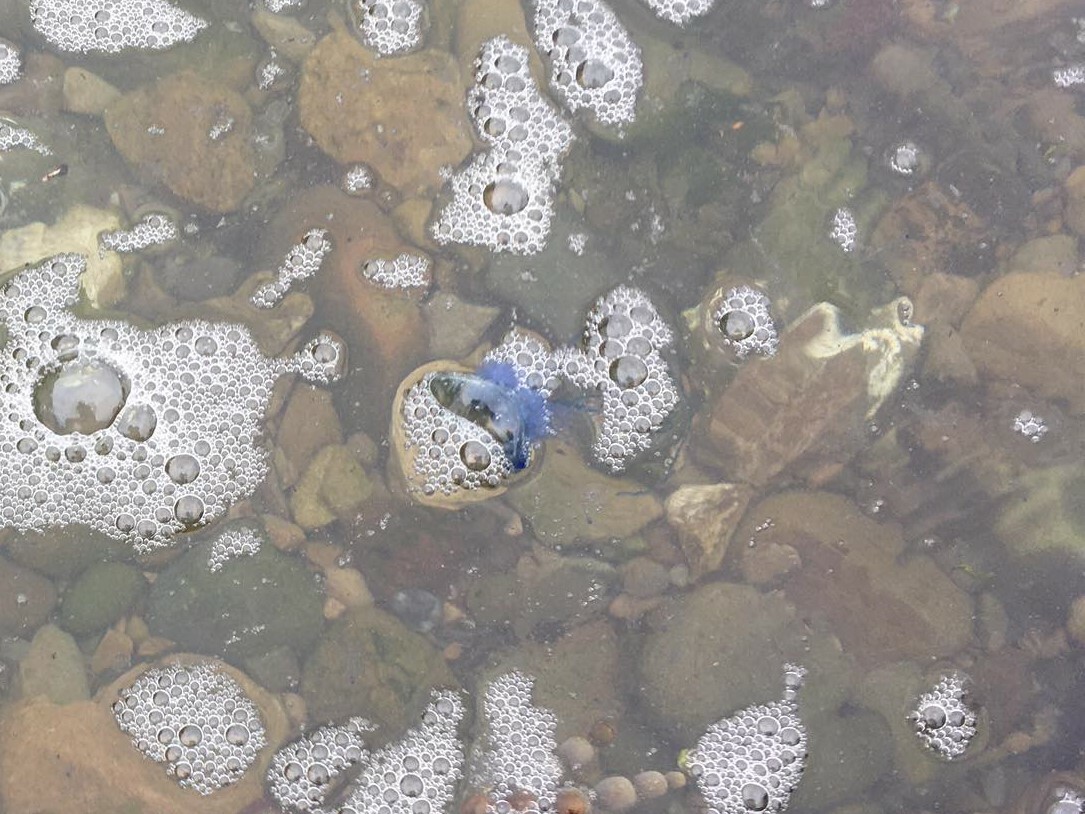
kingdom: Animalia
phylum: Cnidaria
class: Hydrozoa
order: Siphonophorae
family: Physaliidae
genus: Physalia
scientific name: Physalia physalis
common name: Portuguese man-of-war
